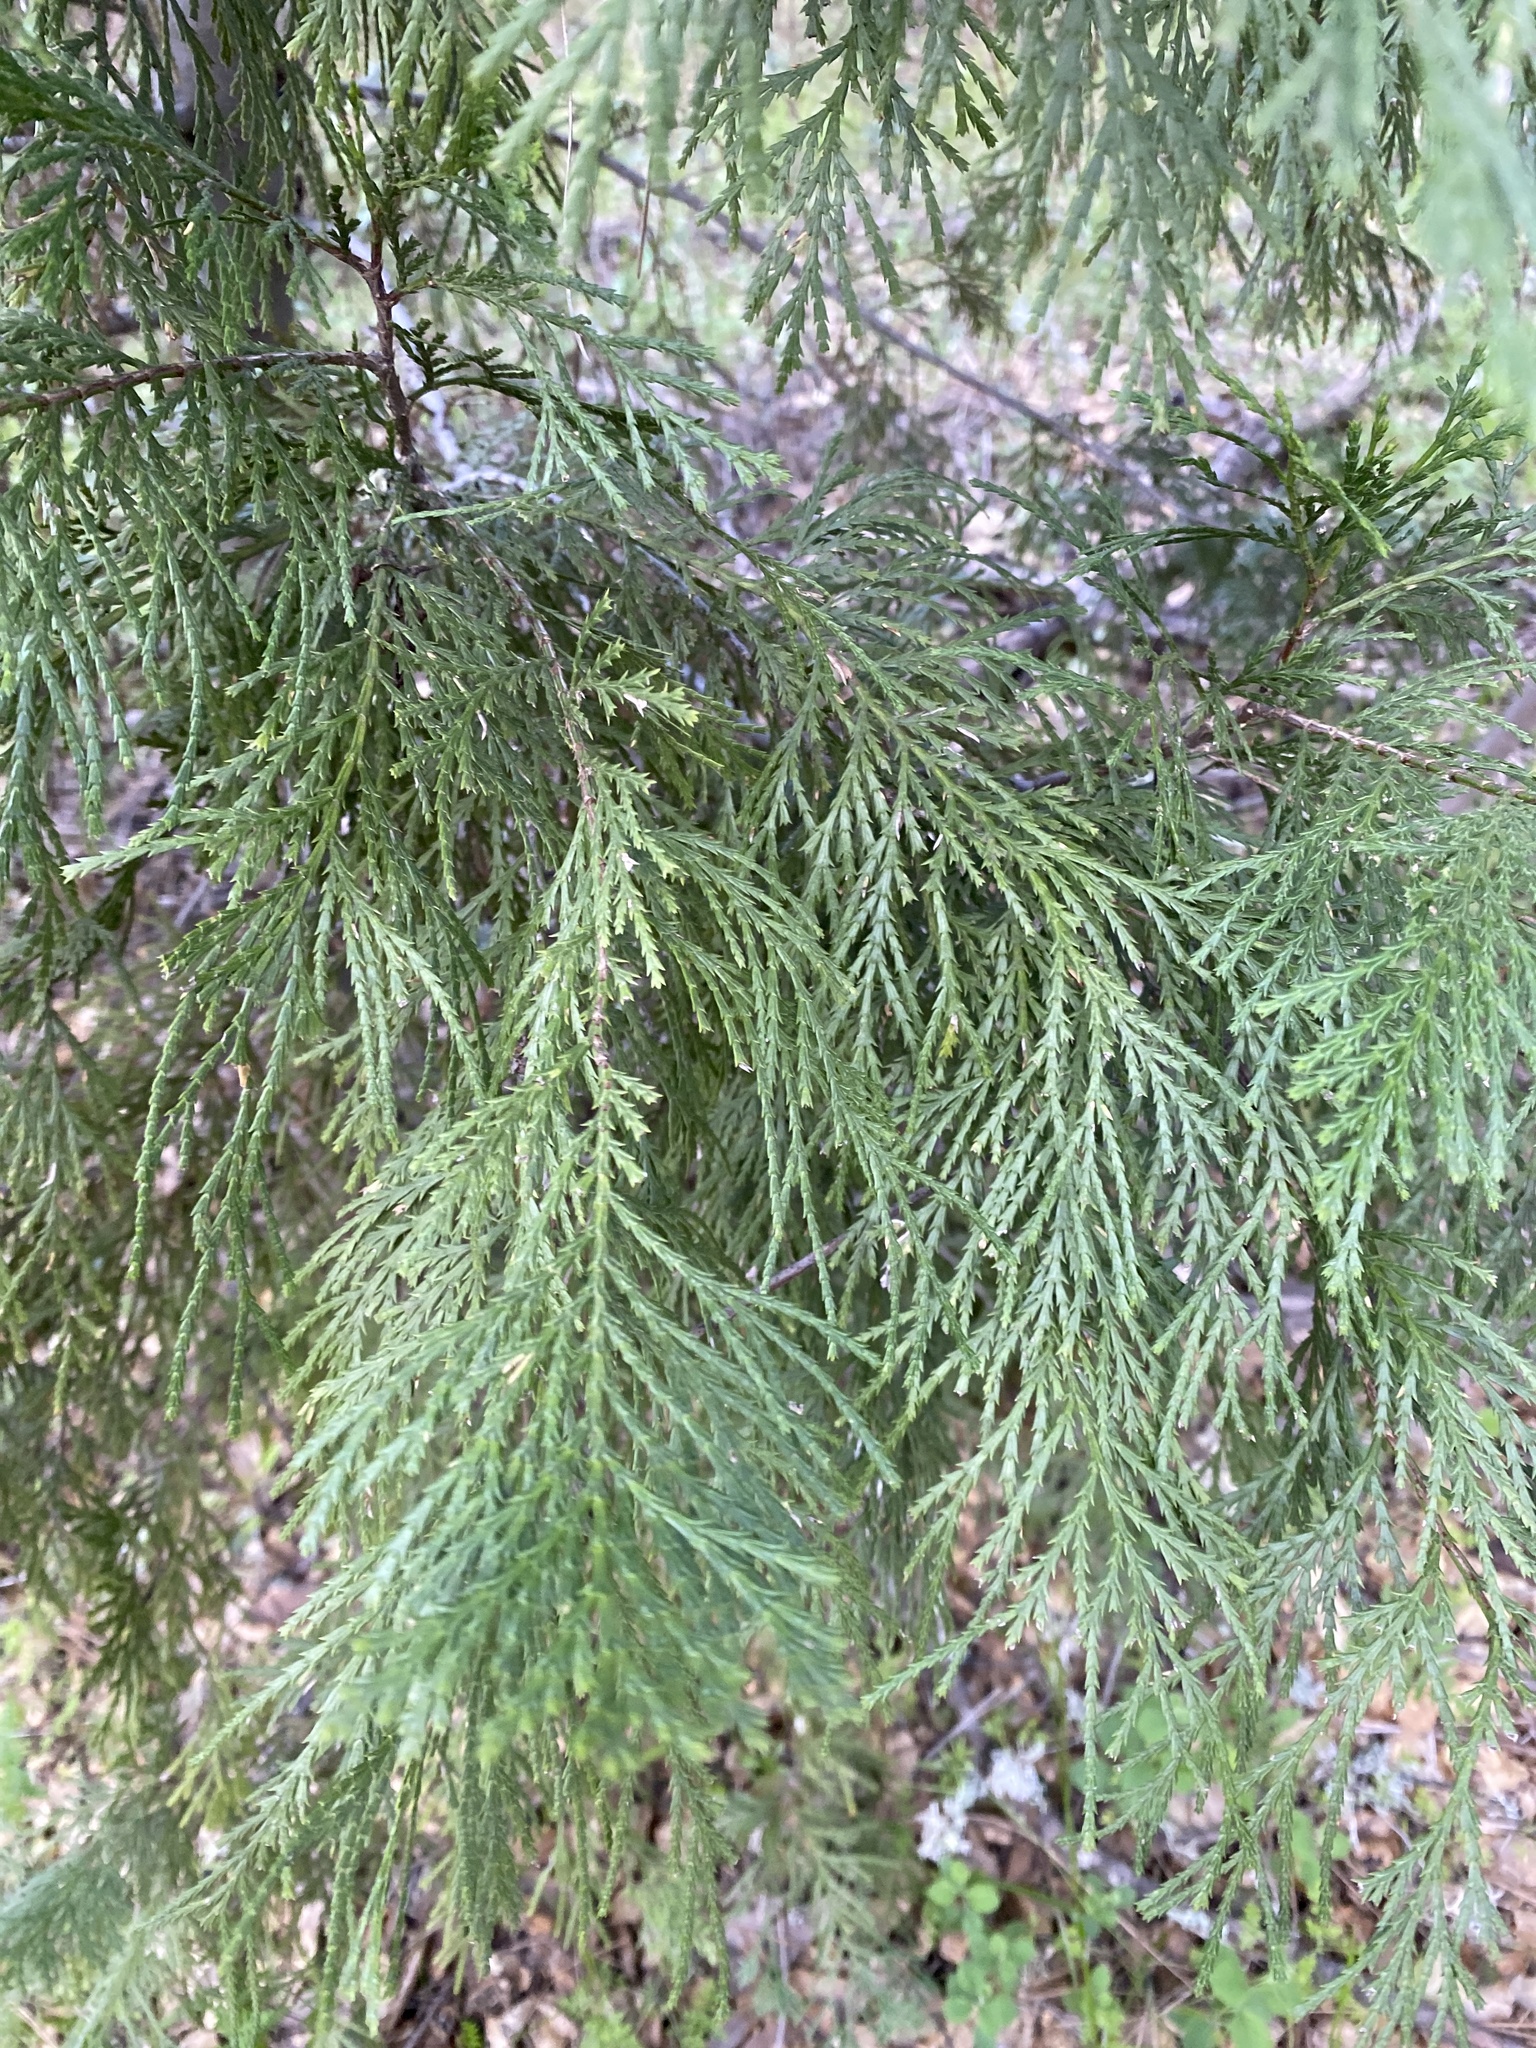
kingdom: Plantae
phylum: Tracheophyta
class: Pinopsida
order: Pinales
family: Cupressaceae
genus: Calocedrus
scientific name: Calocedrus decurrens
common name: Californian incense-cedar
